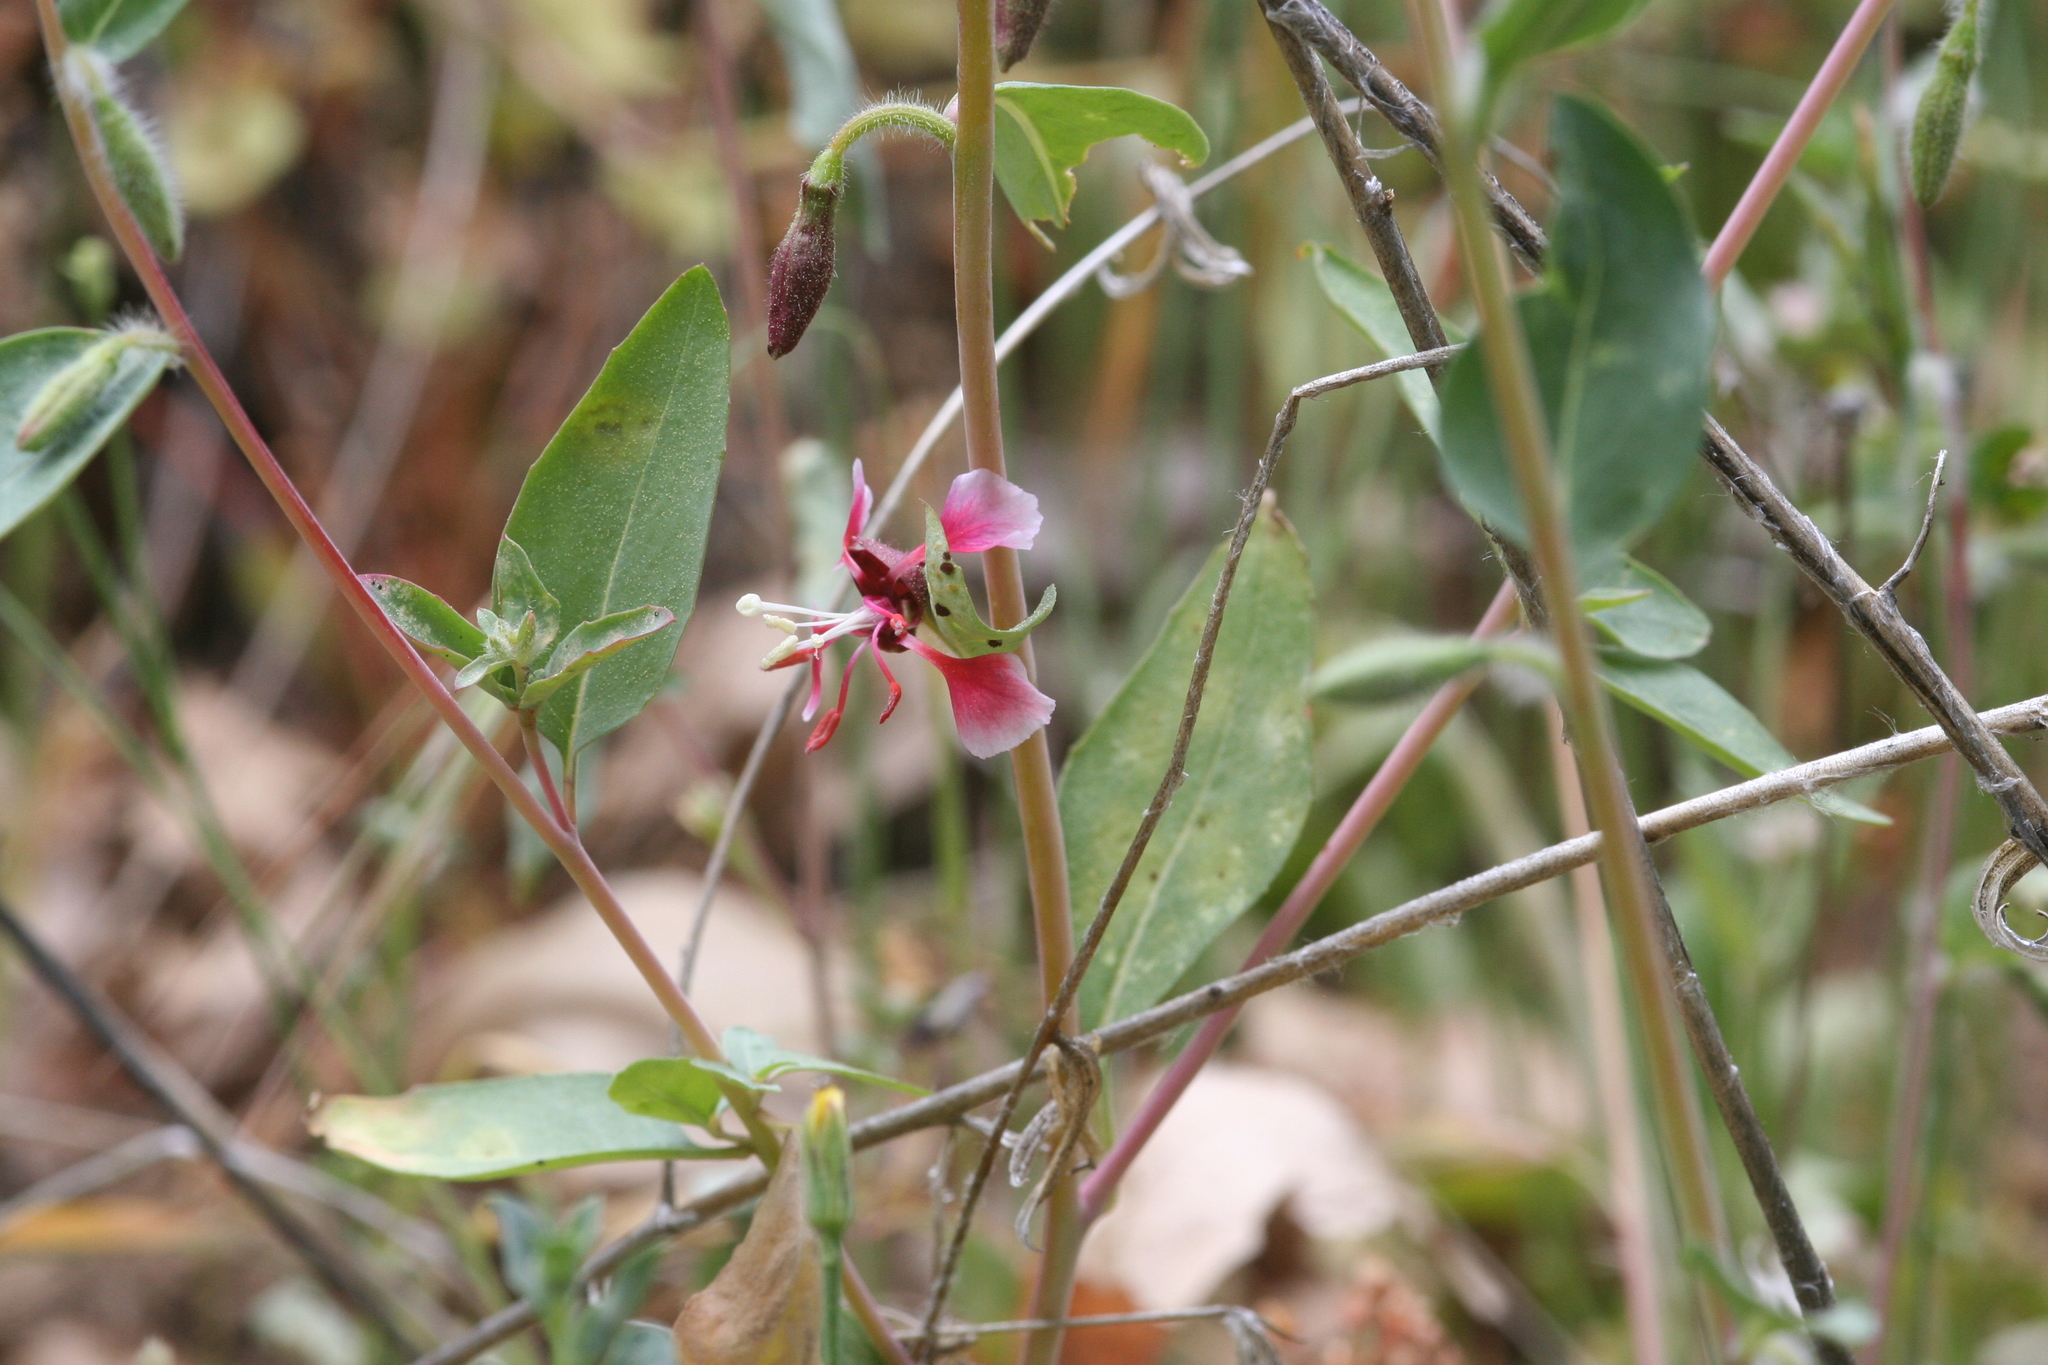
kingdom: Plantae
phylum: Tracheophyta
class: Magnoliopsida
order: Myrtales
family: Onagraceae
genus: Clarkia
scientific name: Clarkia unguiculata
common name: Clarkia
